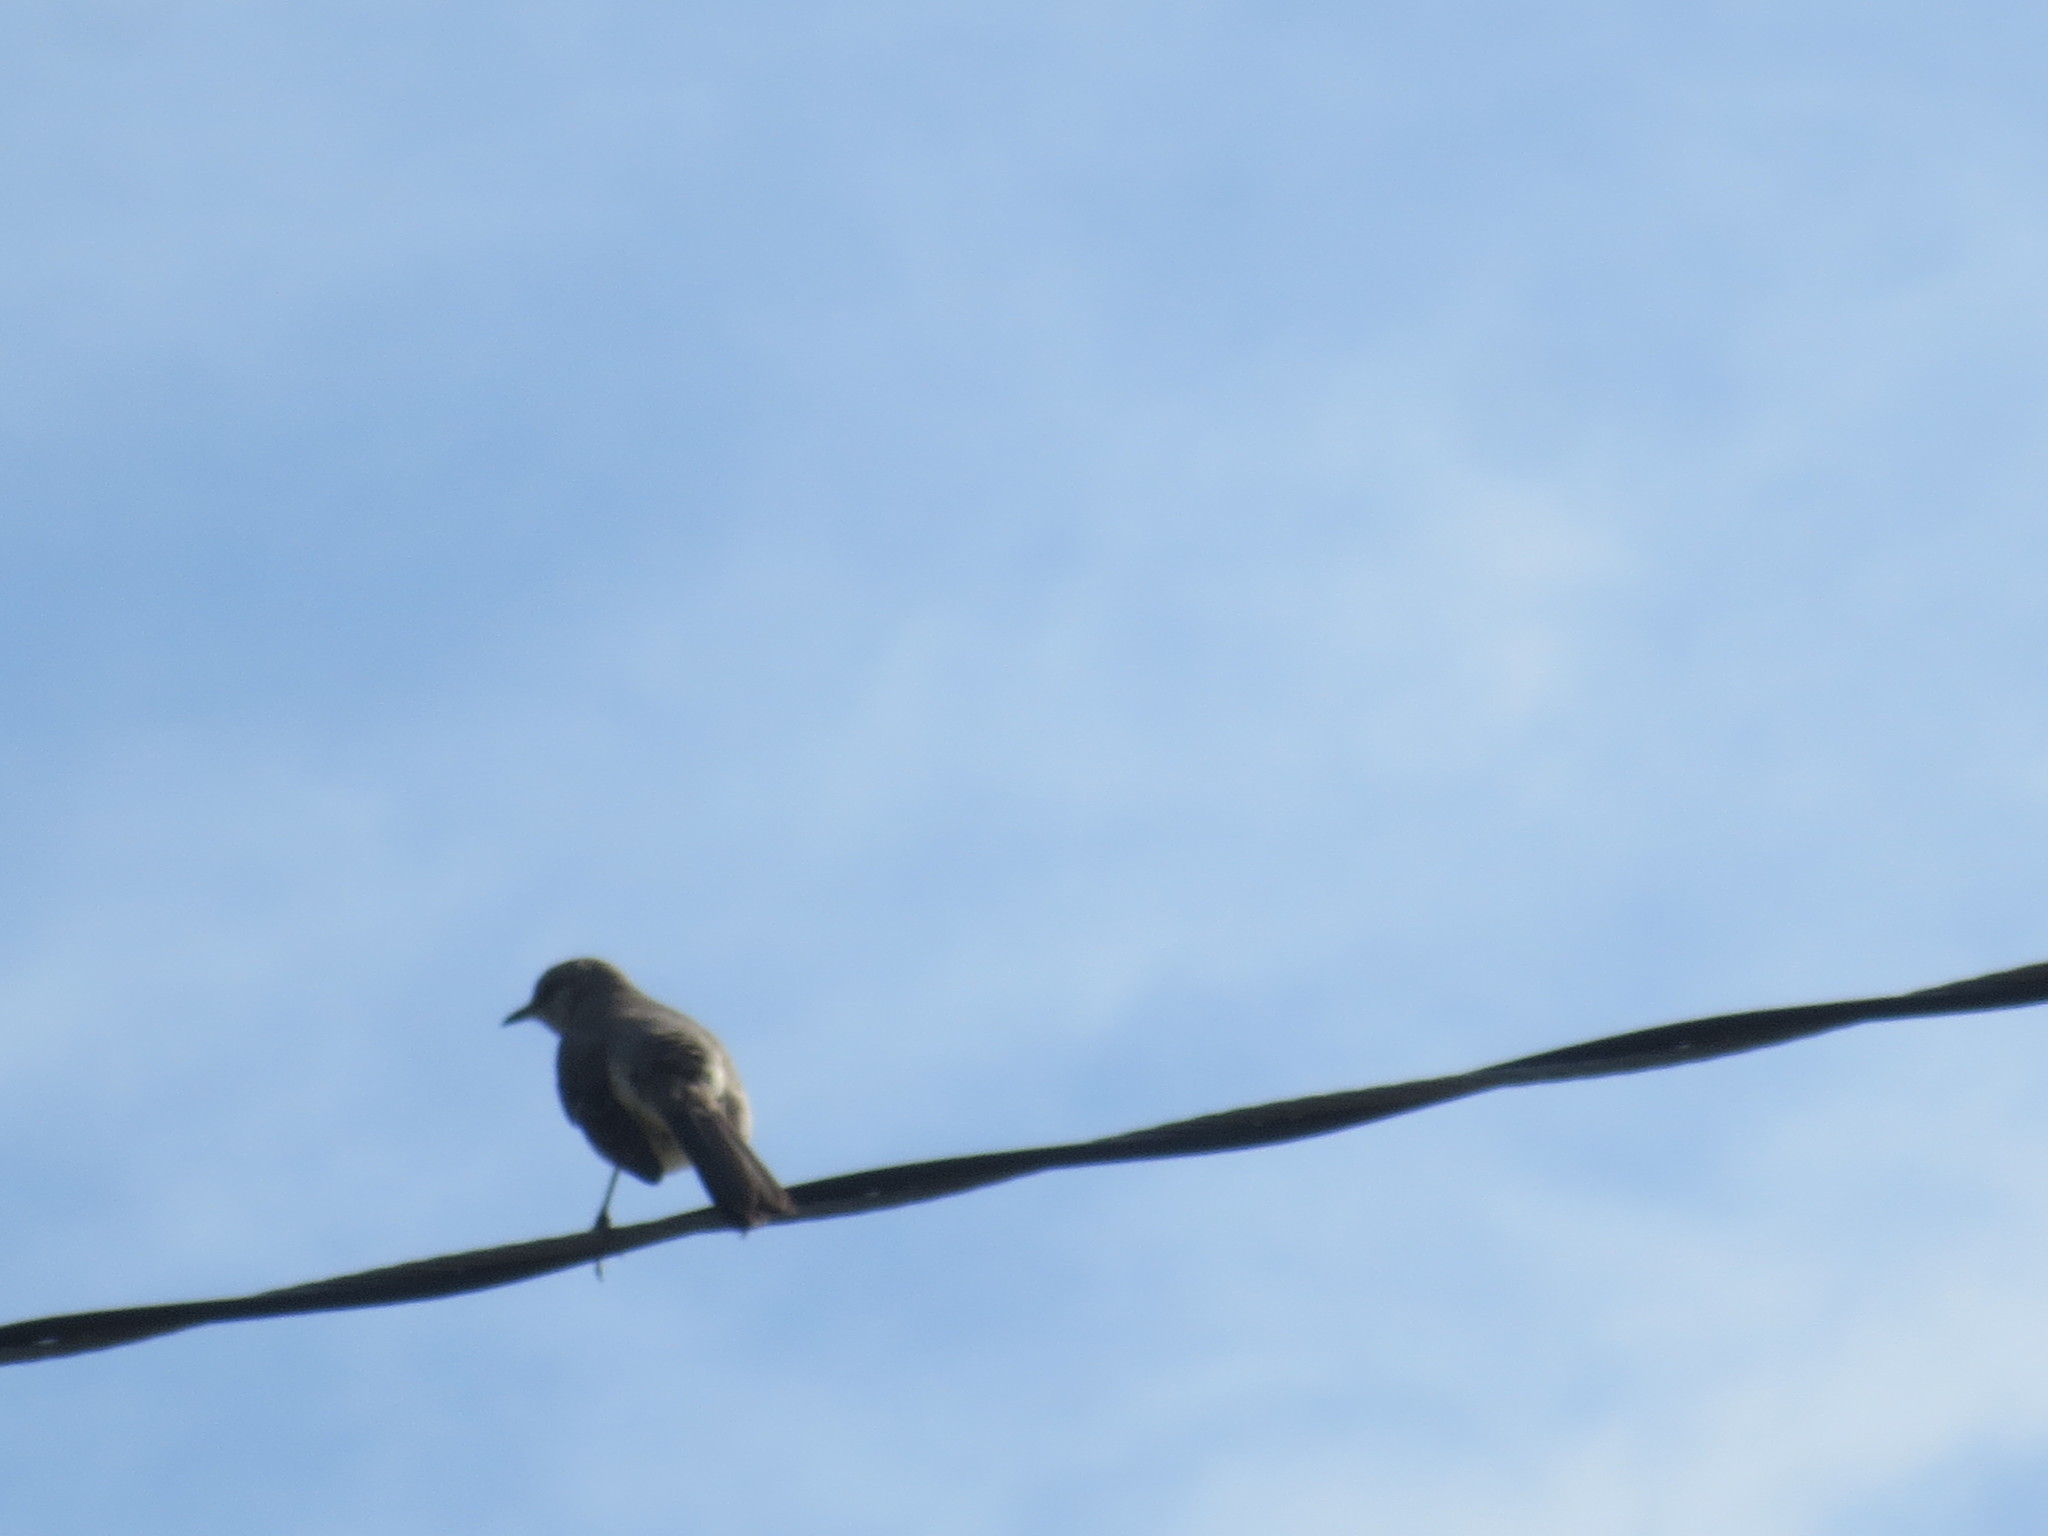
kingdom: Animalia
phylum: Chordata
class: Aves
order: Passeriformes
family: Mimidae
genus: Mimus
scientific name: Mimus polyglottos
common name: Northern mockingbird
